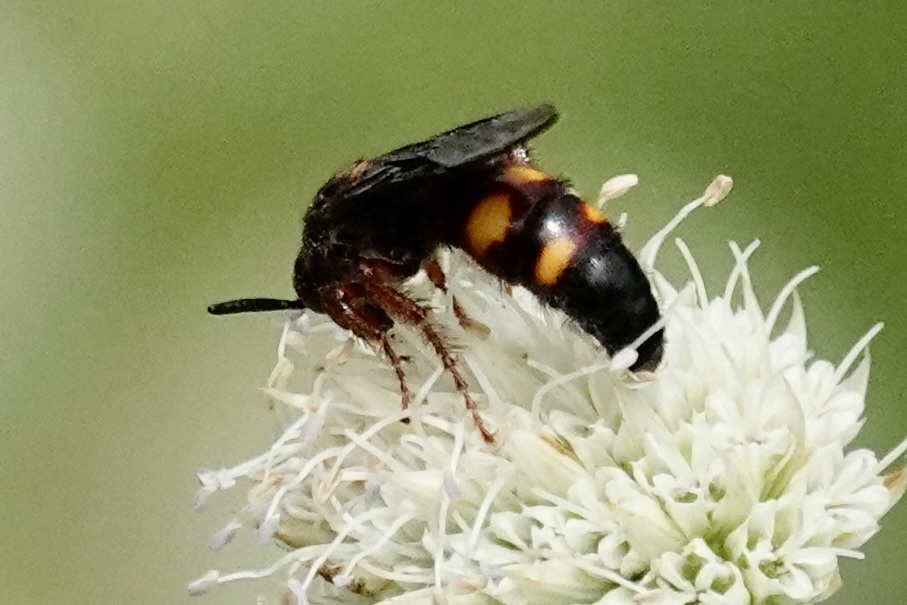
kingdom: Animalia
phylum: Arthropoda
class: Insecta
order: Hymenoptera
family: Scoliidae
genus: Scolia
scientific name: Scolia nobilitata
